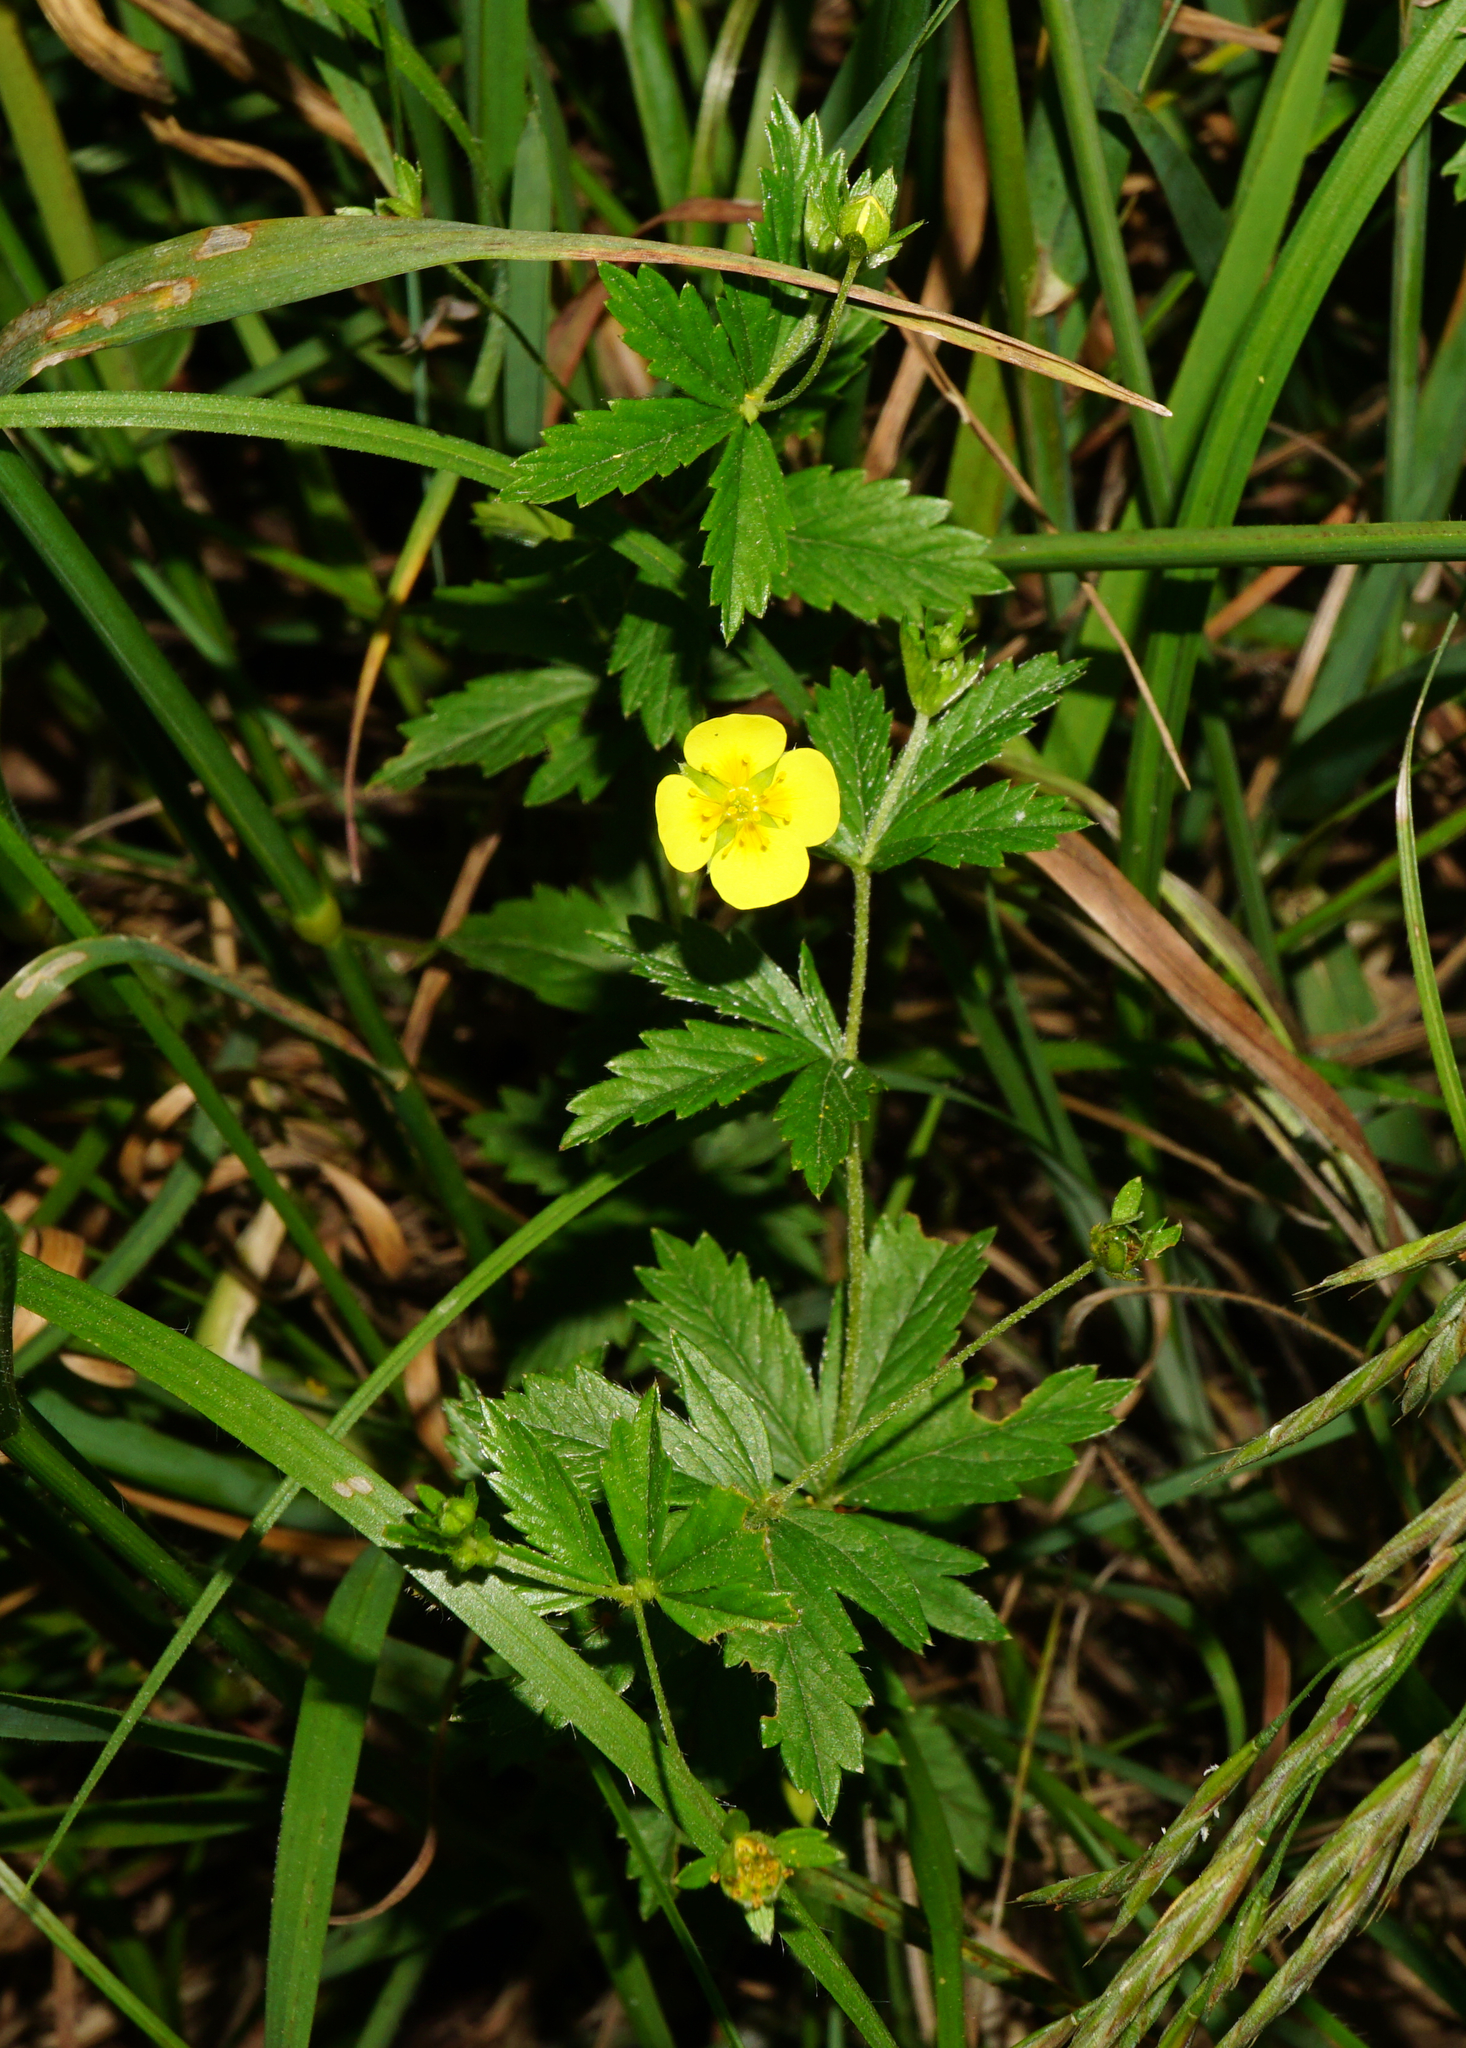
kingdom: Plantae
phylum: Tracheophyta
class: Magnoliopsida
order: Rosales
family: Rosaceae
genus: Potentilla
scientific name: Potentilla erecta
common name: Tormentil
